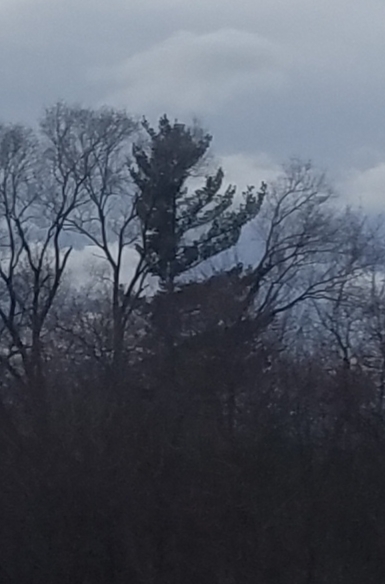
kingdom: Plantae
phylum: Tracheophyta
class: Pinopsida
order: Pinales
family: Pinaceae
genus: Pinus
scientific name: Pinus strobus
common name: Weymouth pine
